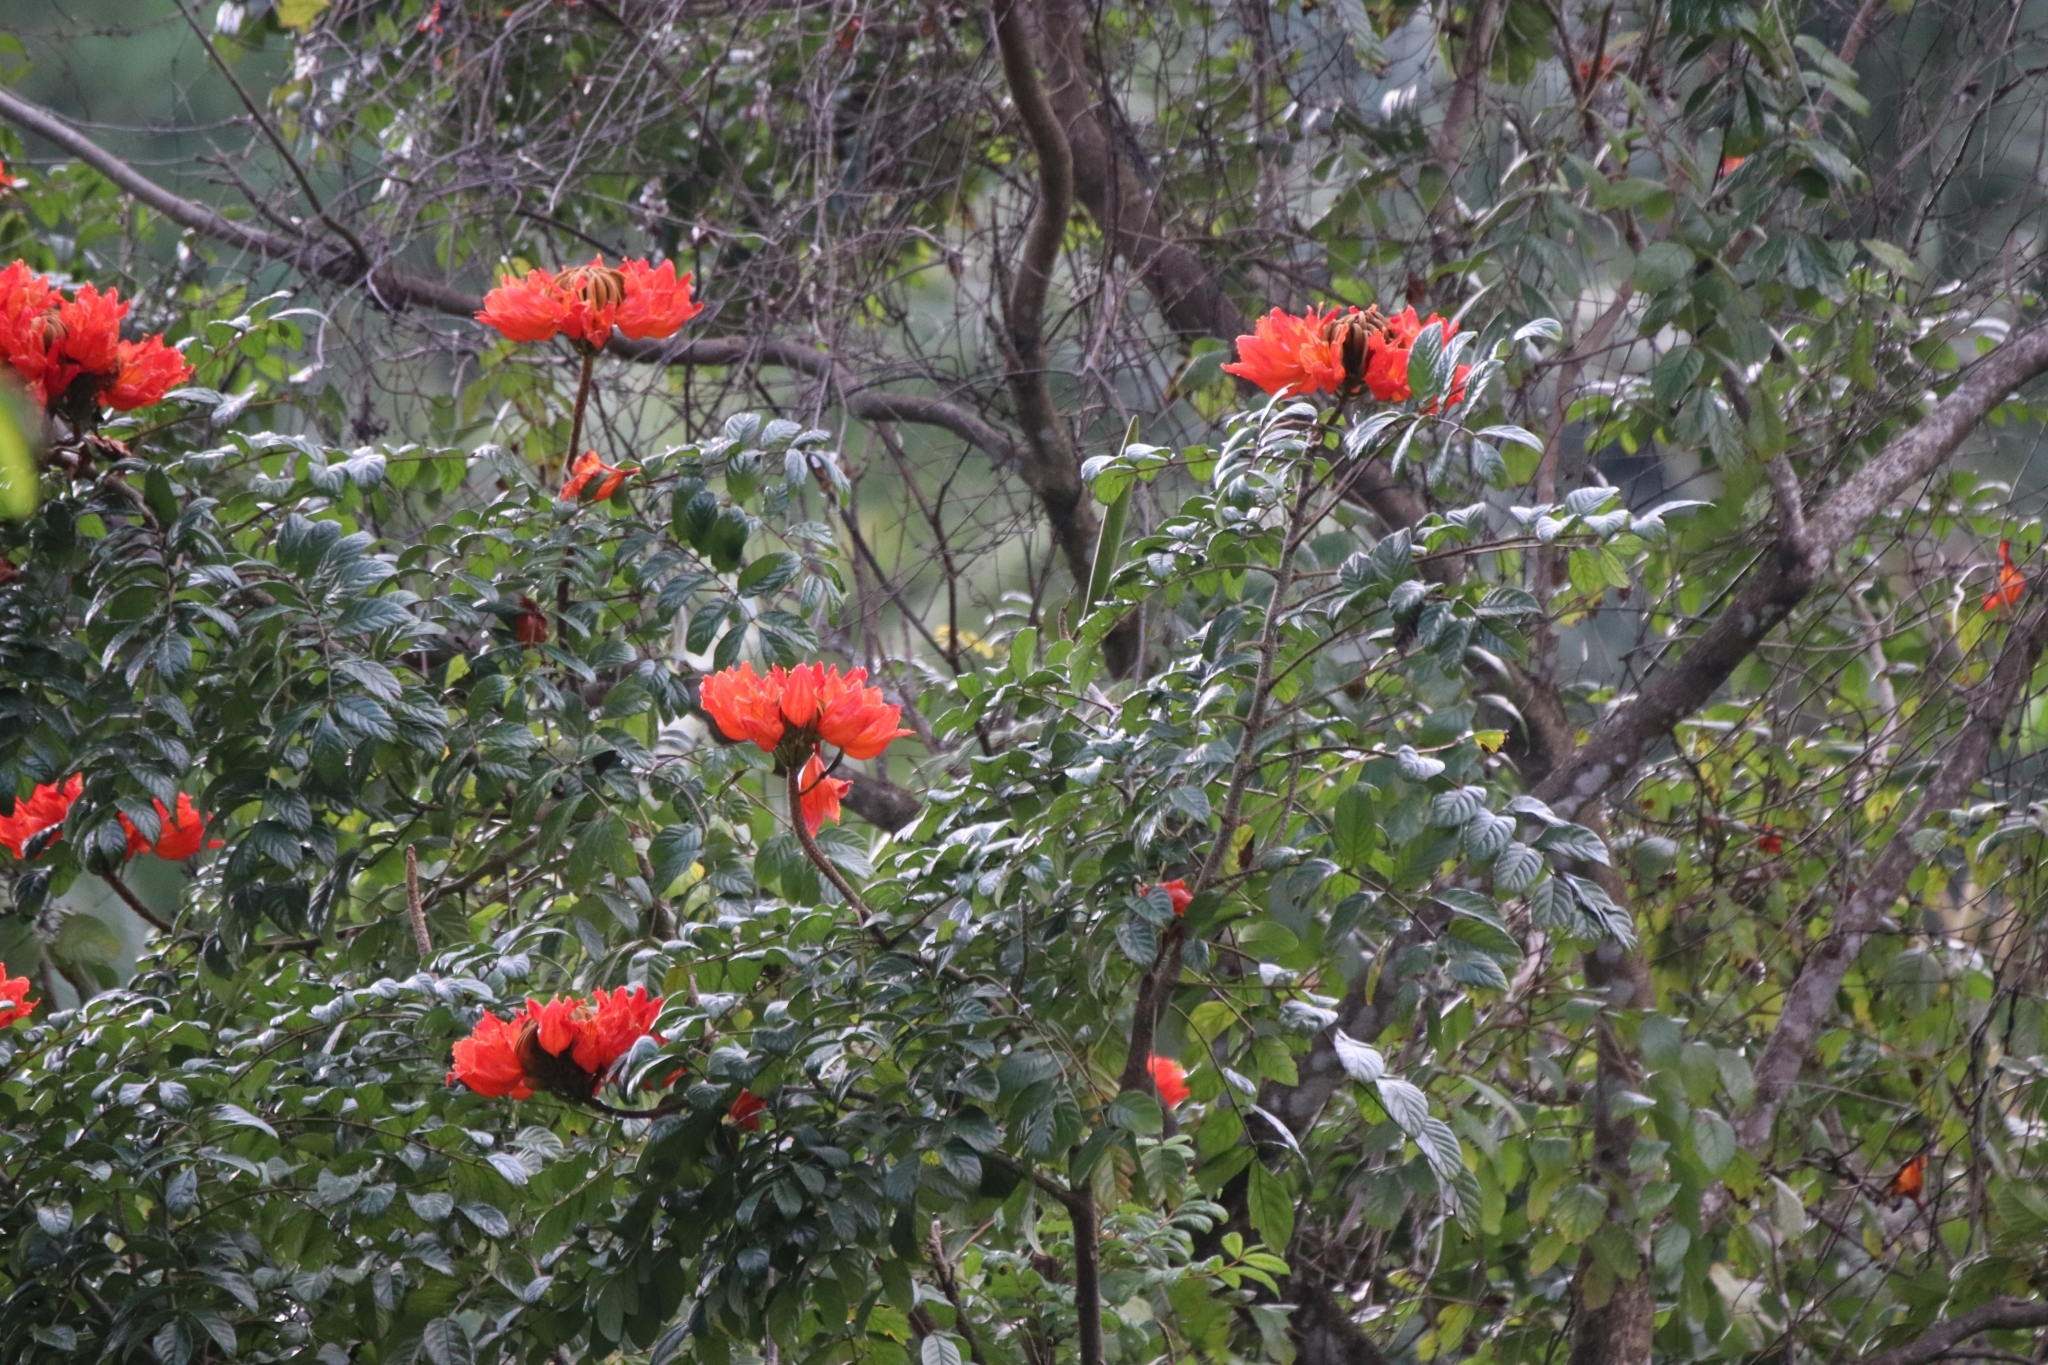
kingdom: Plantae
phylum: Tracheophyta
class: Magnoliopsida
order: Lamiales
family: Bignoniaceae
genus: Spathodea
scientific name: Spathodea campanulata
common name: African tuliptree
